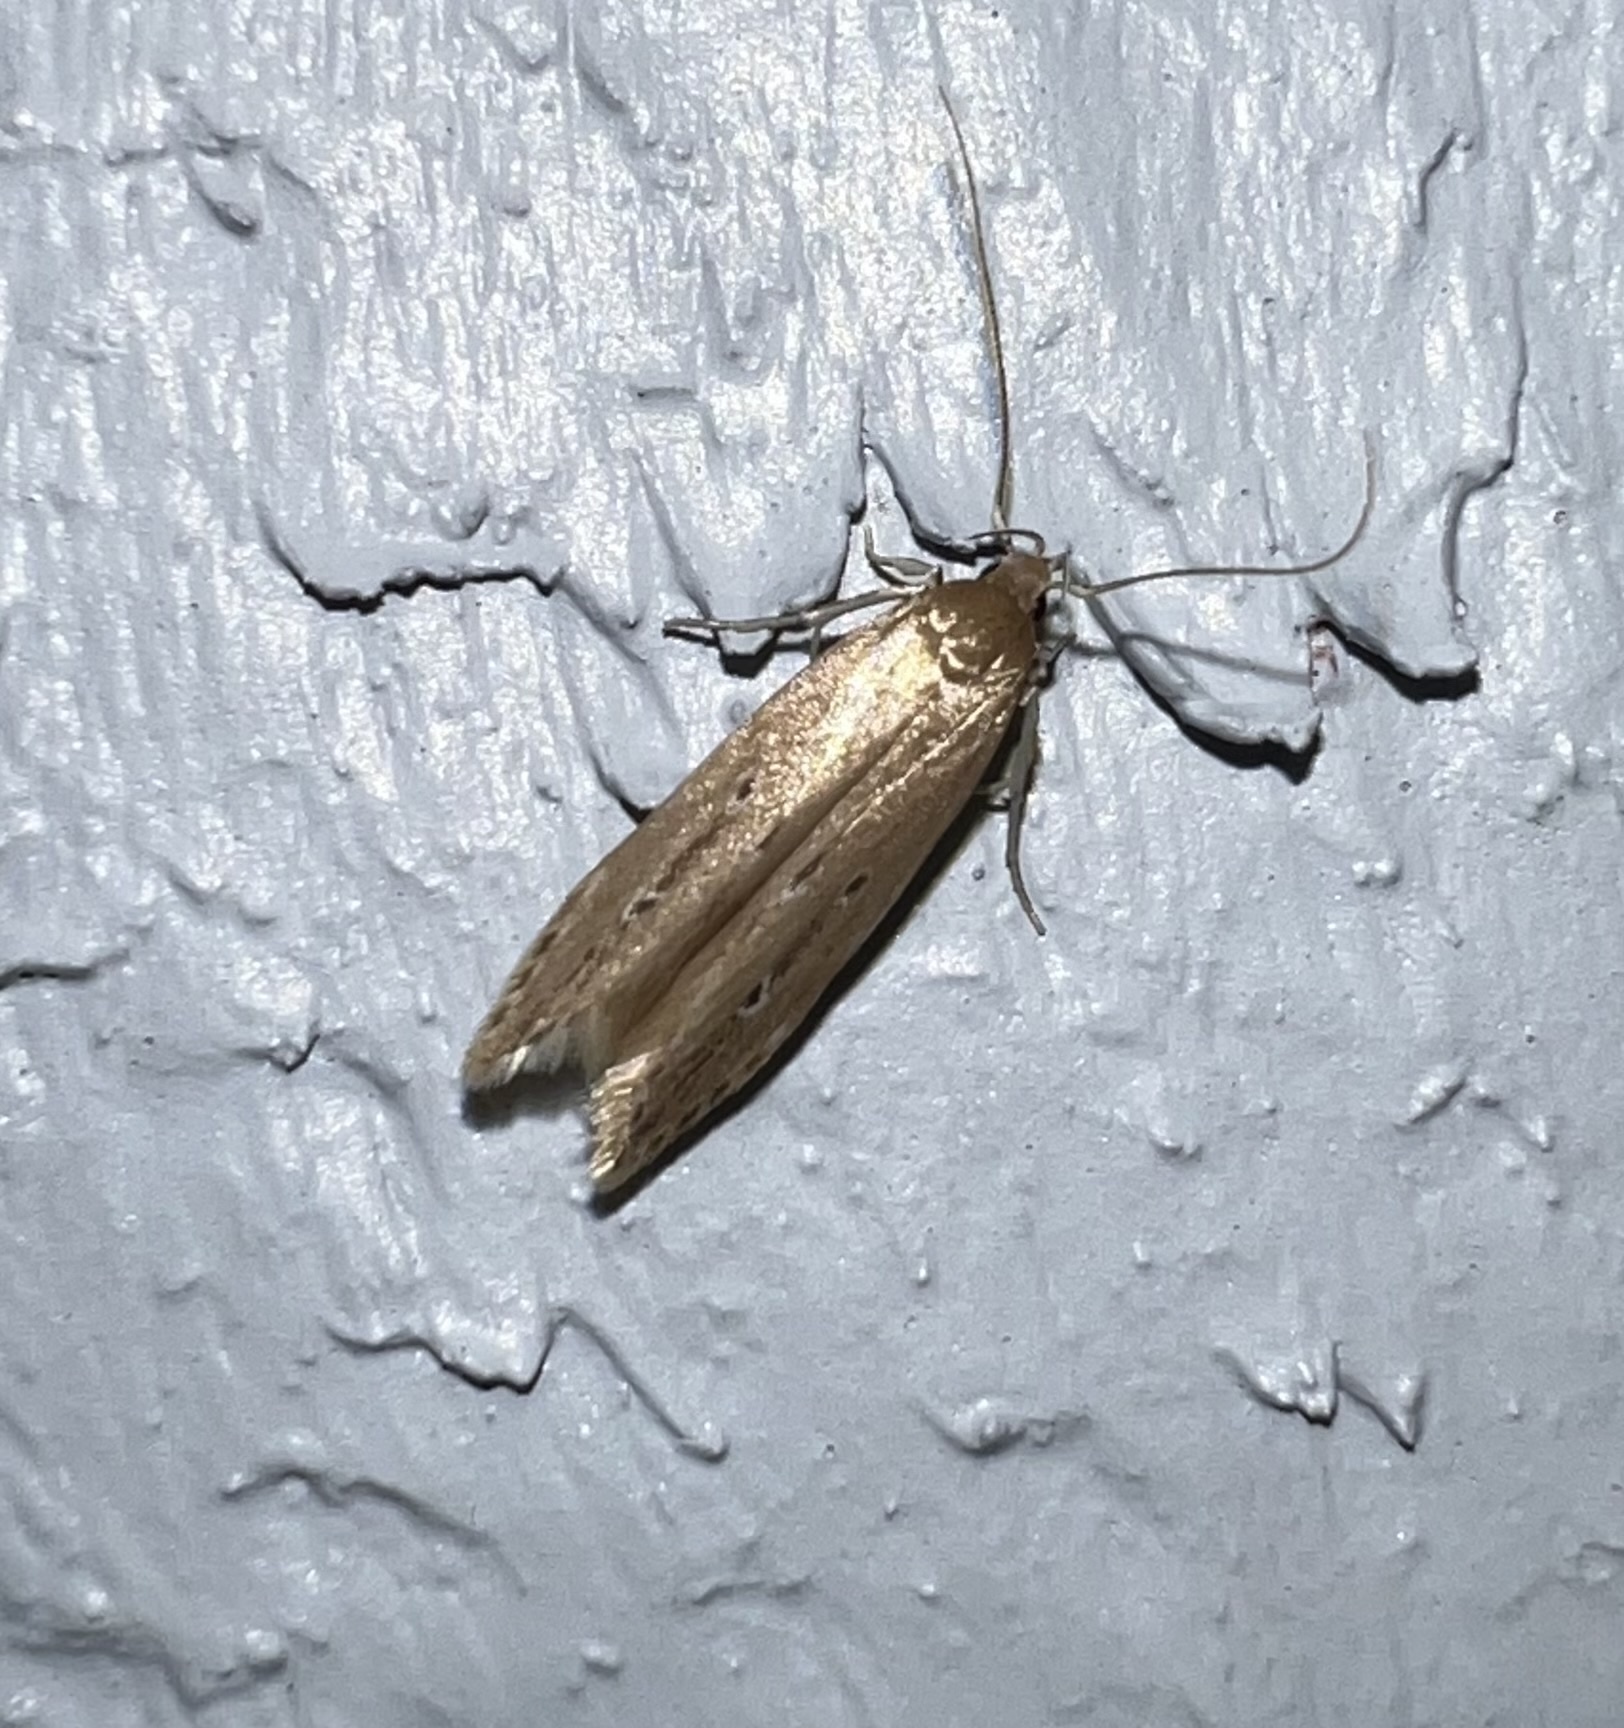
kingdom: Animalia
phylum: Arthropoda
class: Insecta
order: Lepidoptera
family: Cosmopterigidae
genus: Limnaecia
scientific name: Limnaecia phragmitella
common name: Bulrush cosmet
